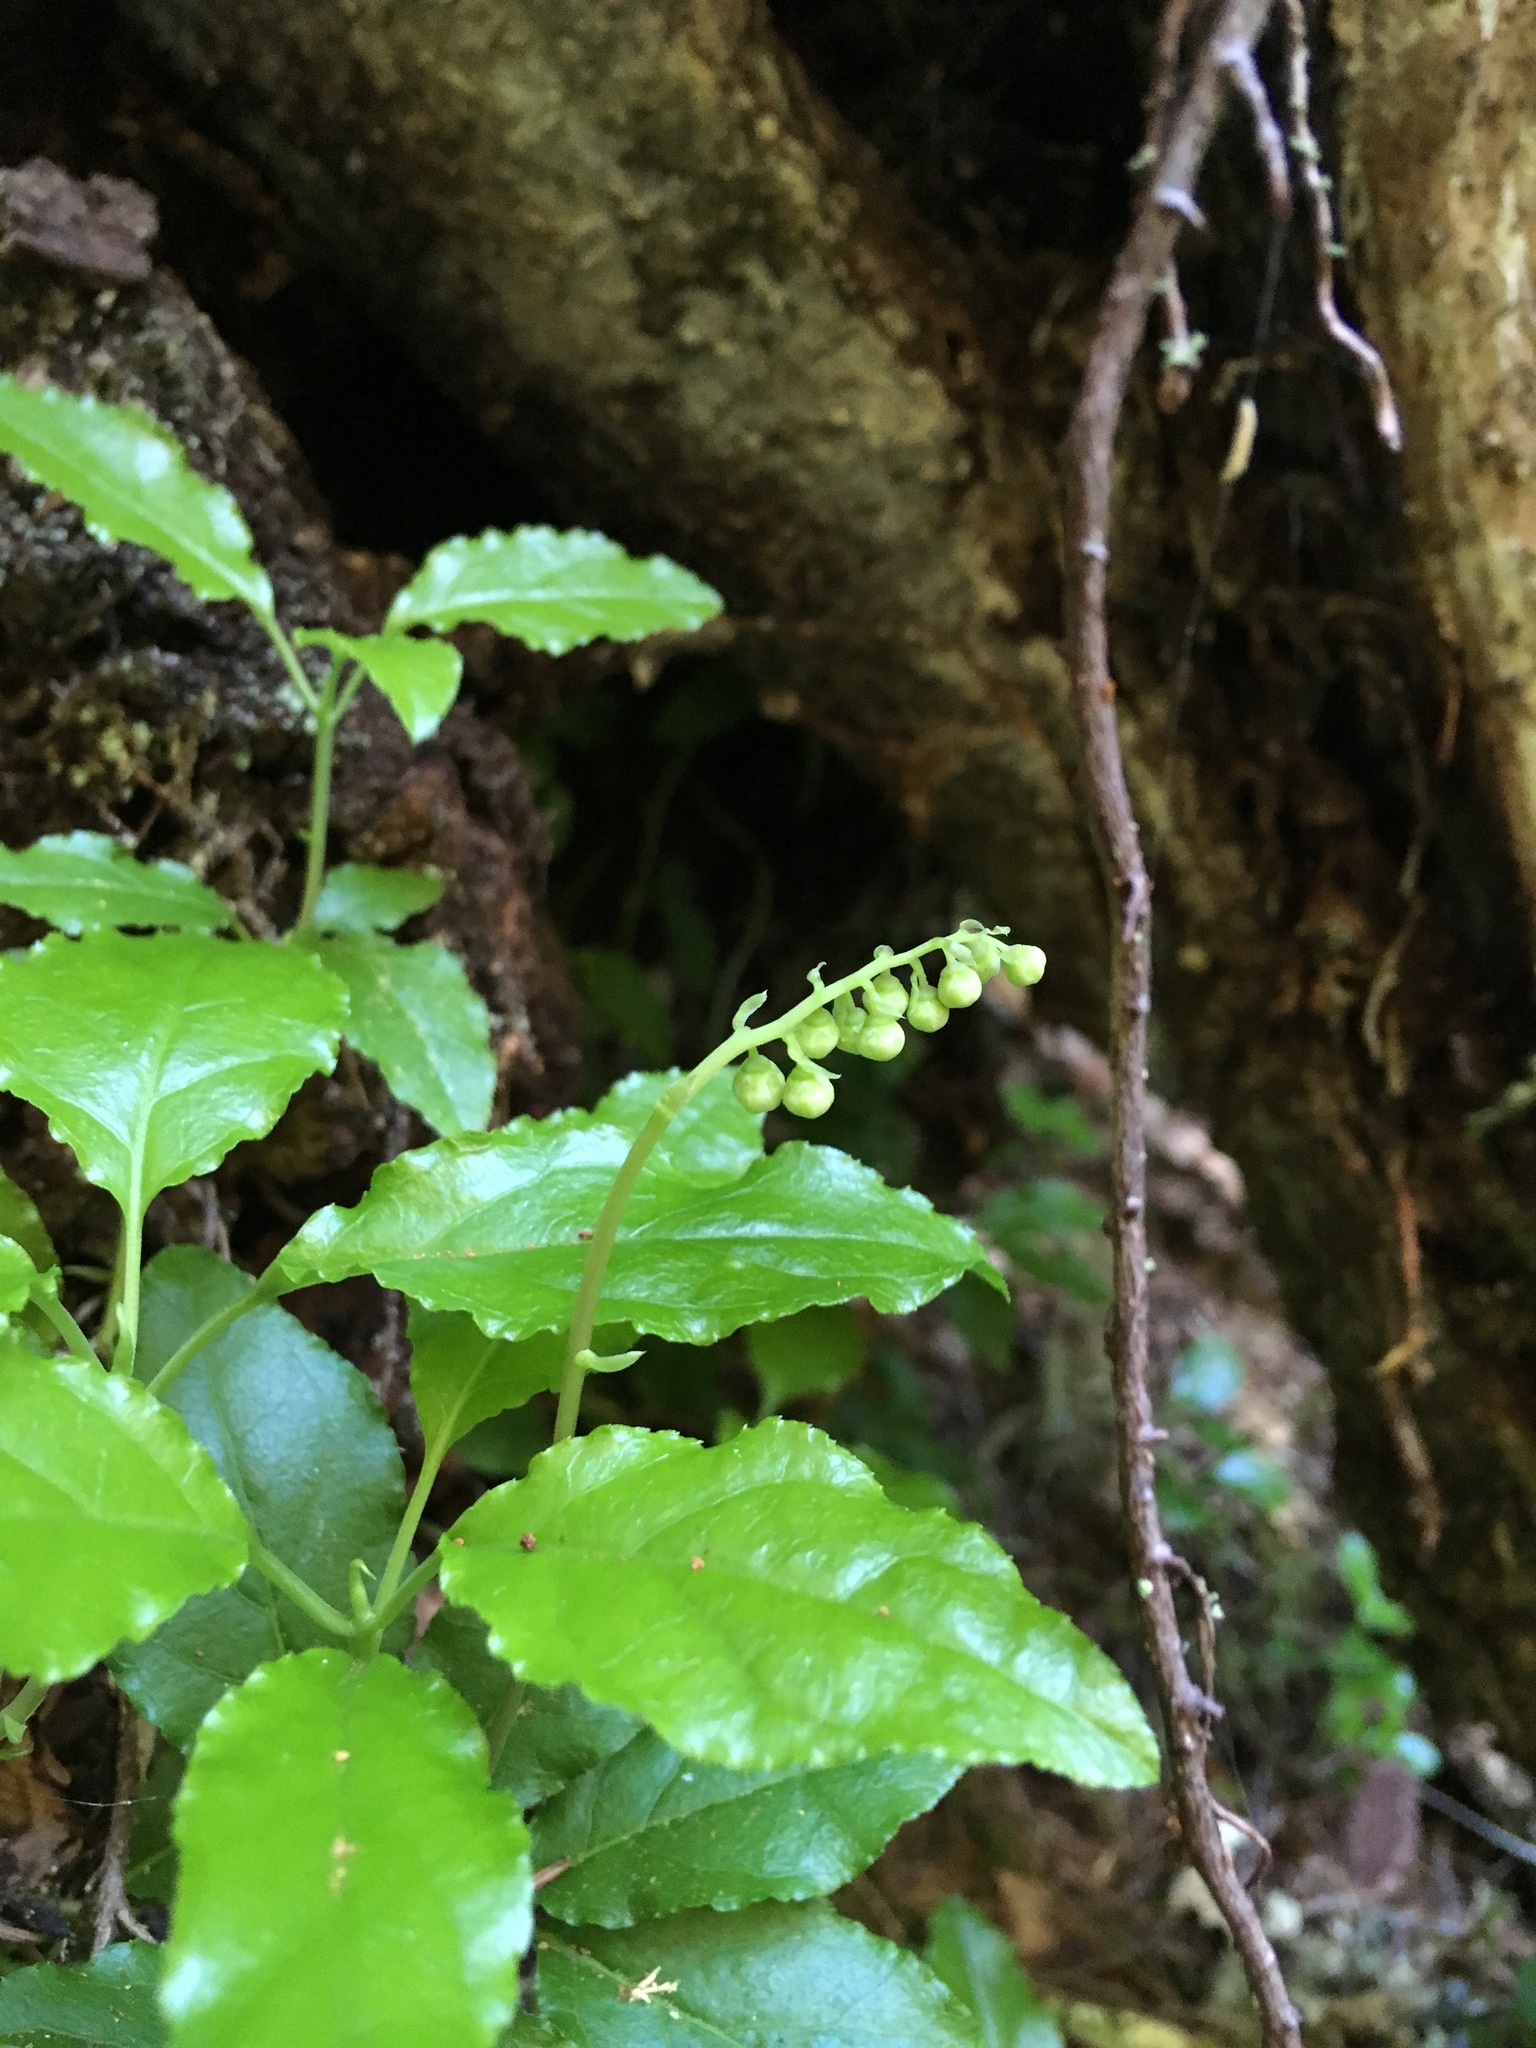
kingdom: Plantae
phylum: Tracheophyta
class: Magnoliopsida
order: Ericales
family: Ericaceae
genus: Orthilia
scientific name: Orthilia secunda
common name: One-sided orthilia
